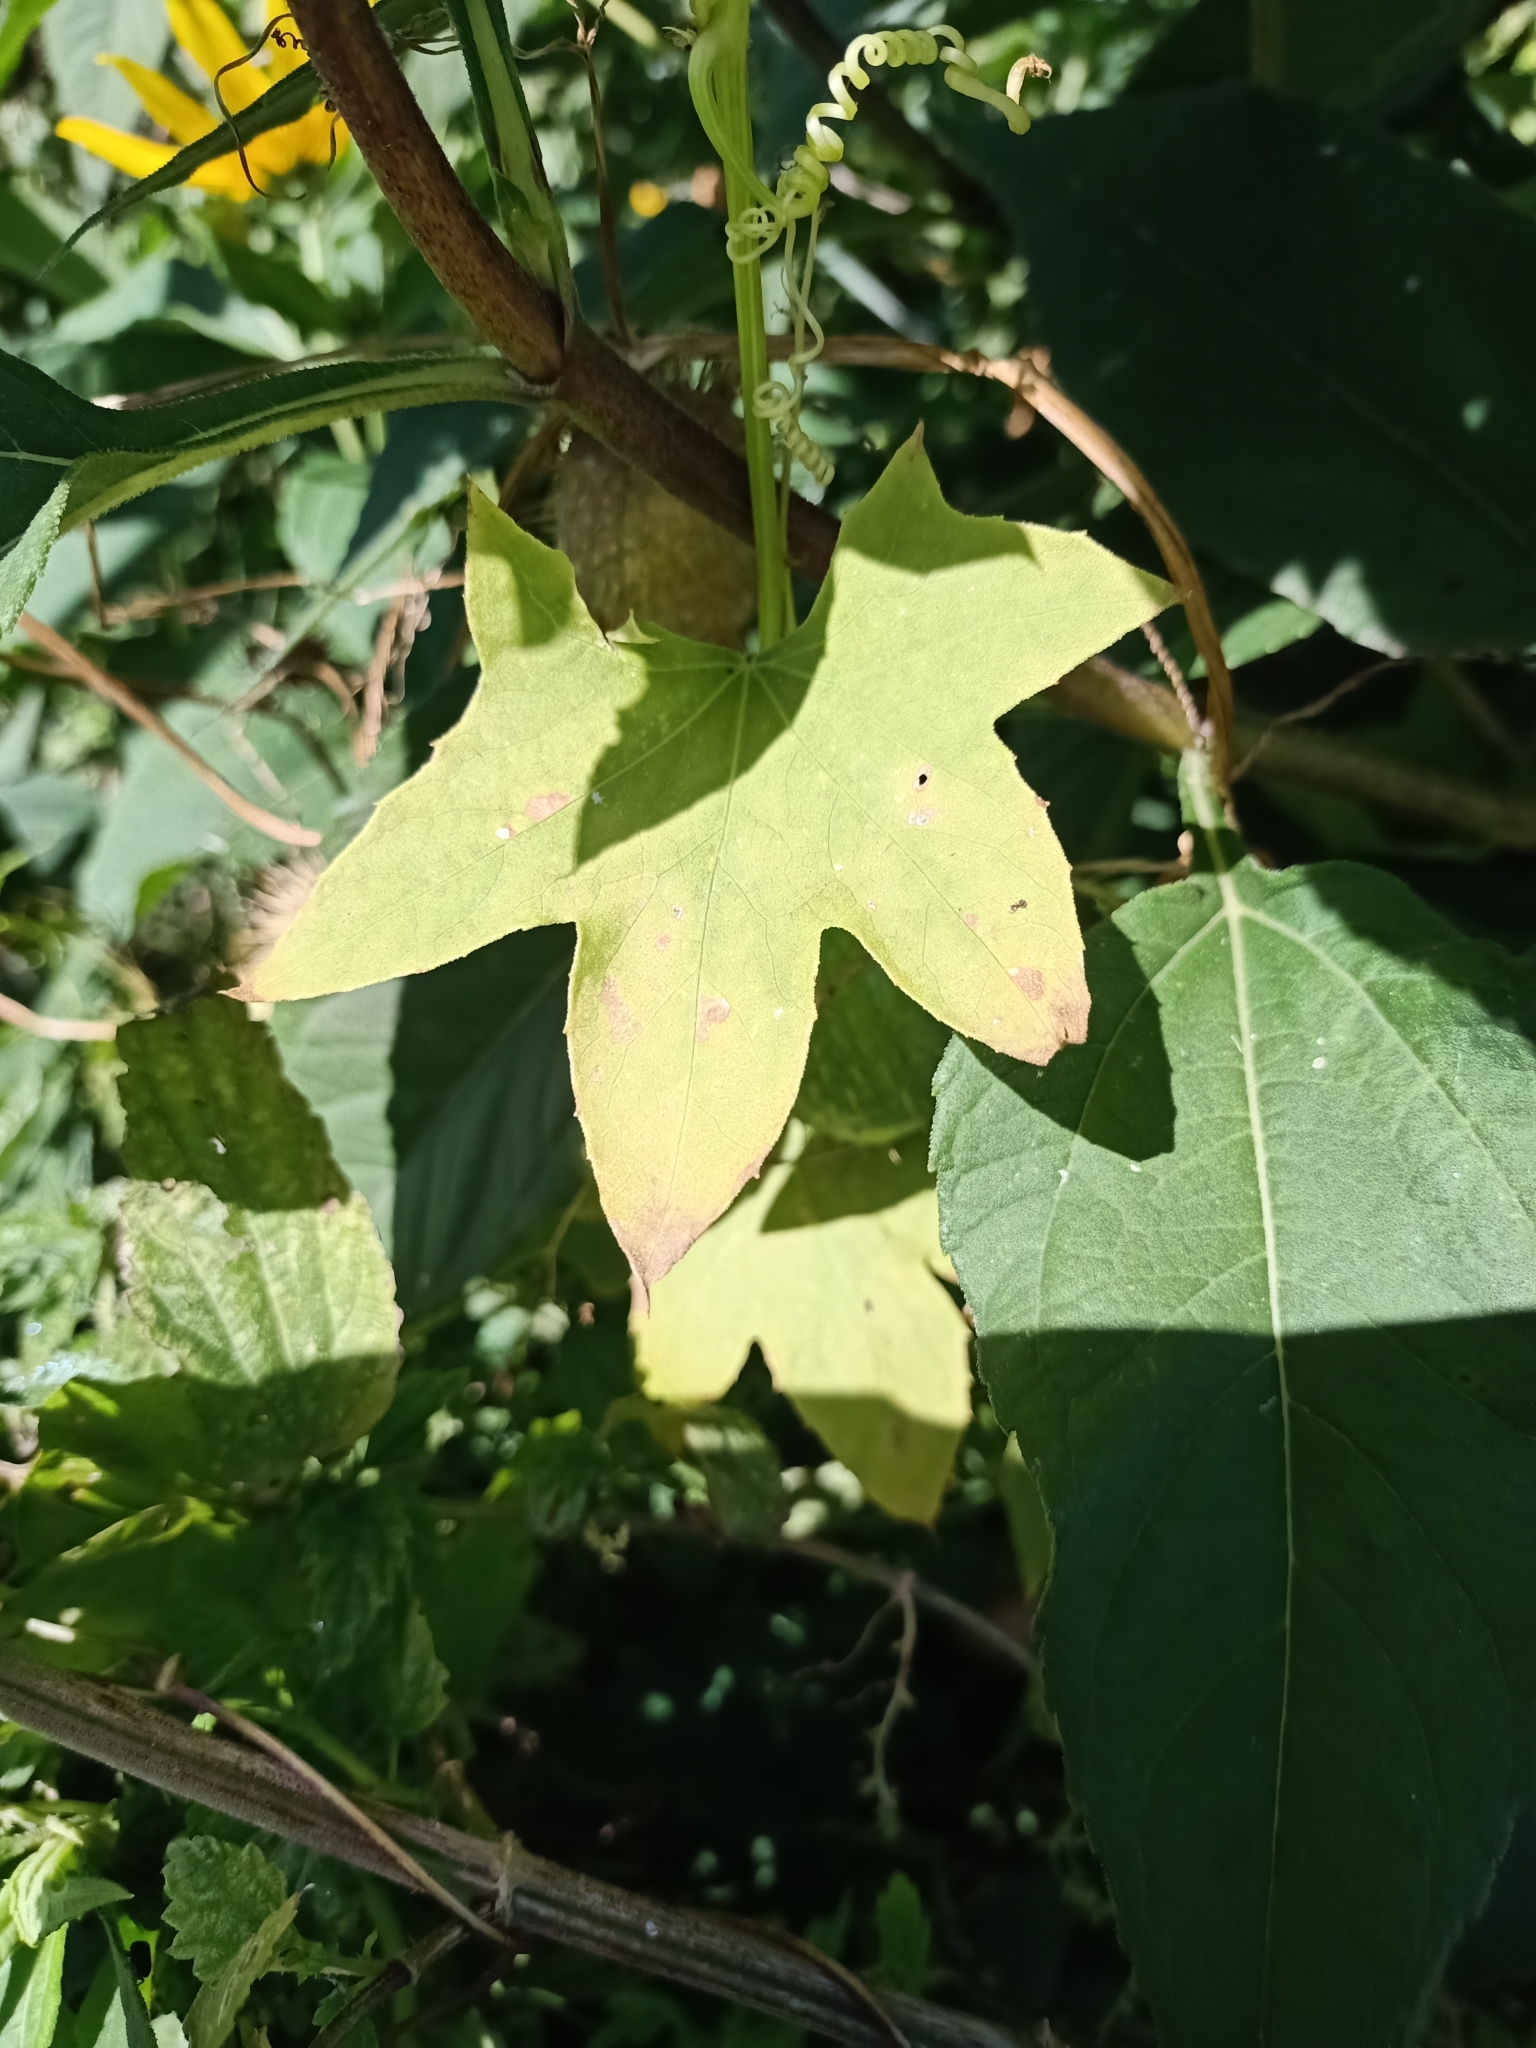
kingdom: Plantae
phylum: Tracheophyta
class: Magnoliopsida
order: Cucurbitales
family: Cucurbitaceae
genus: Echinocystis
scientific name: Echinocystis lobata
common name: Wild cucumber
